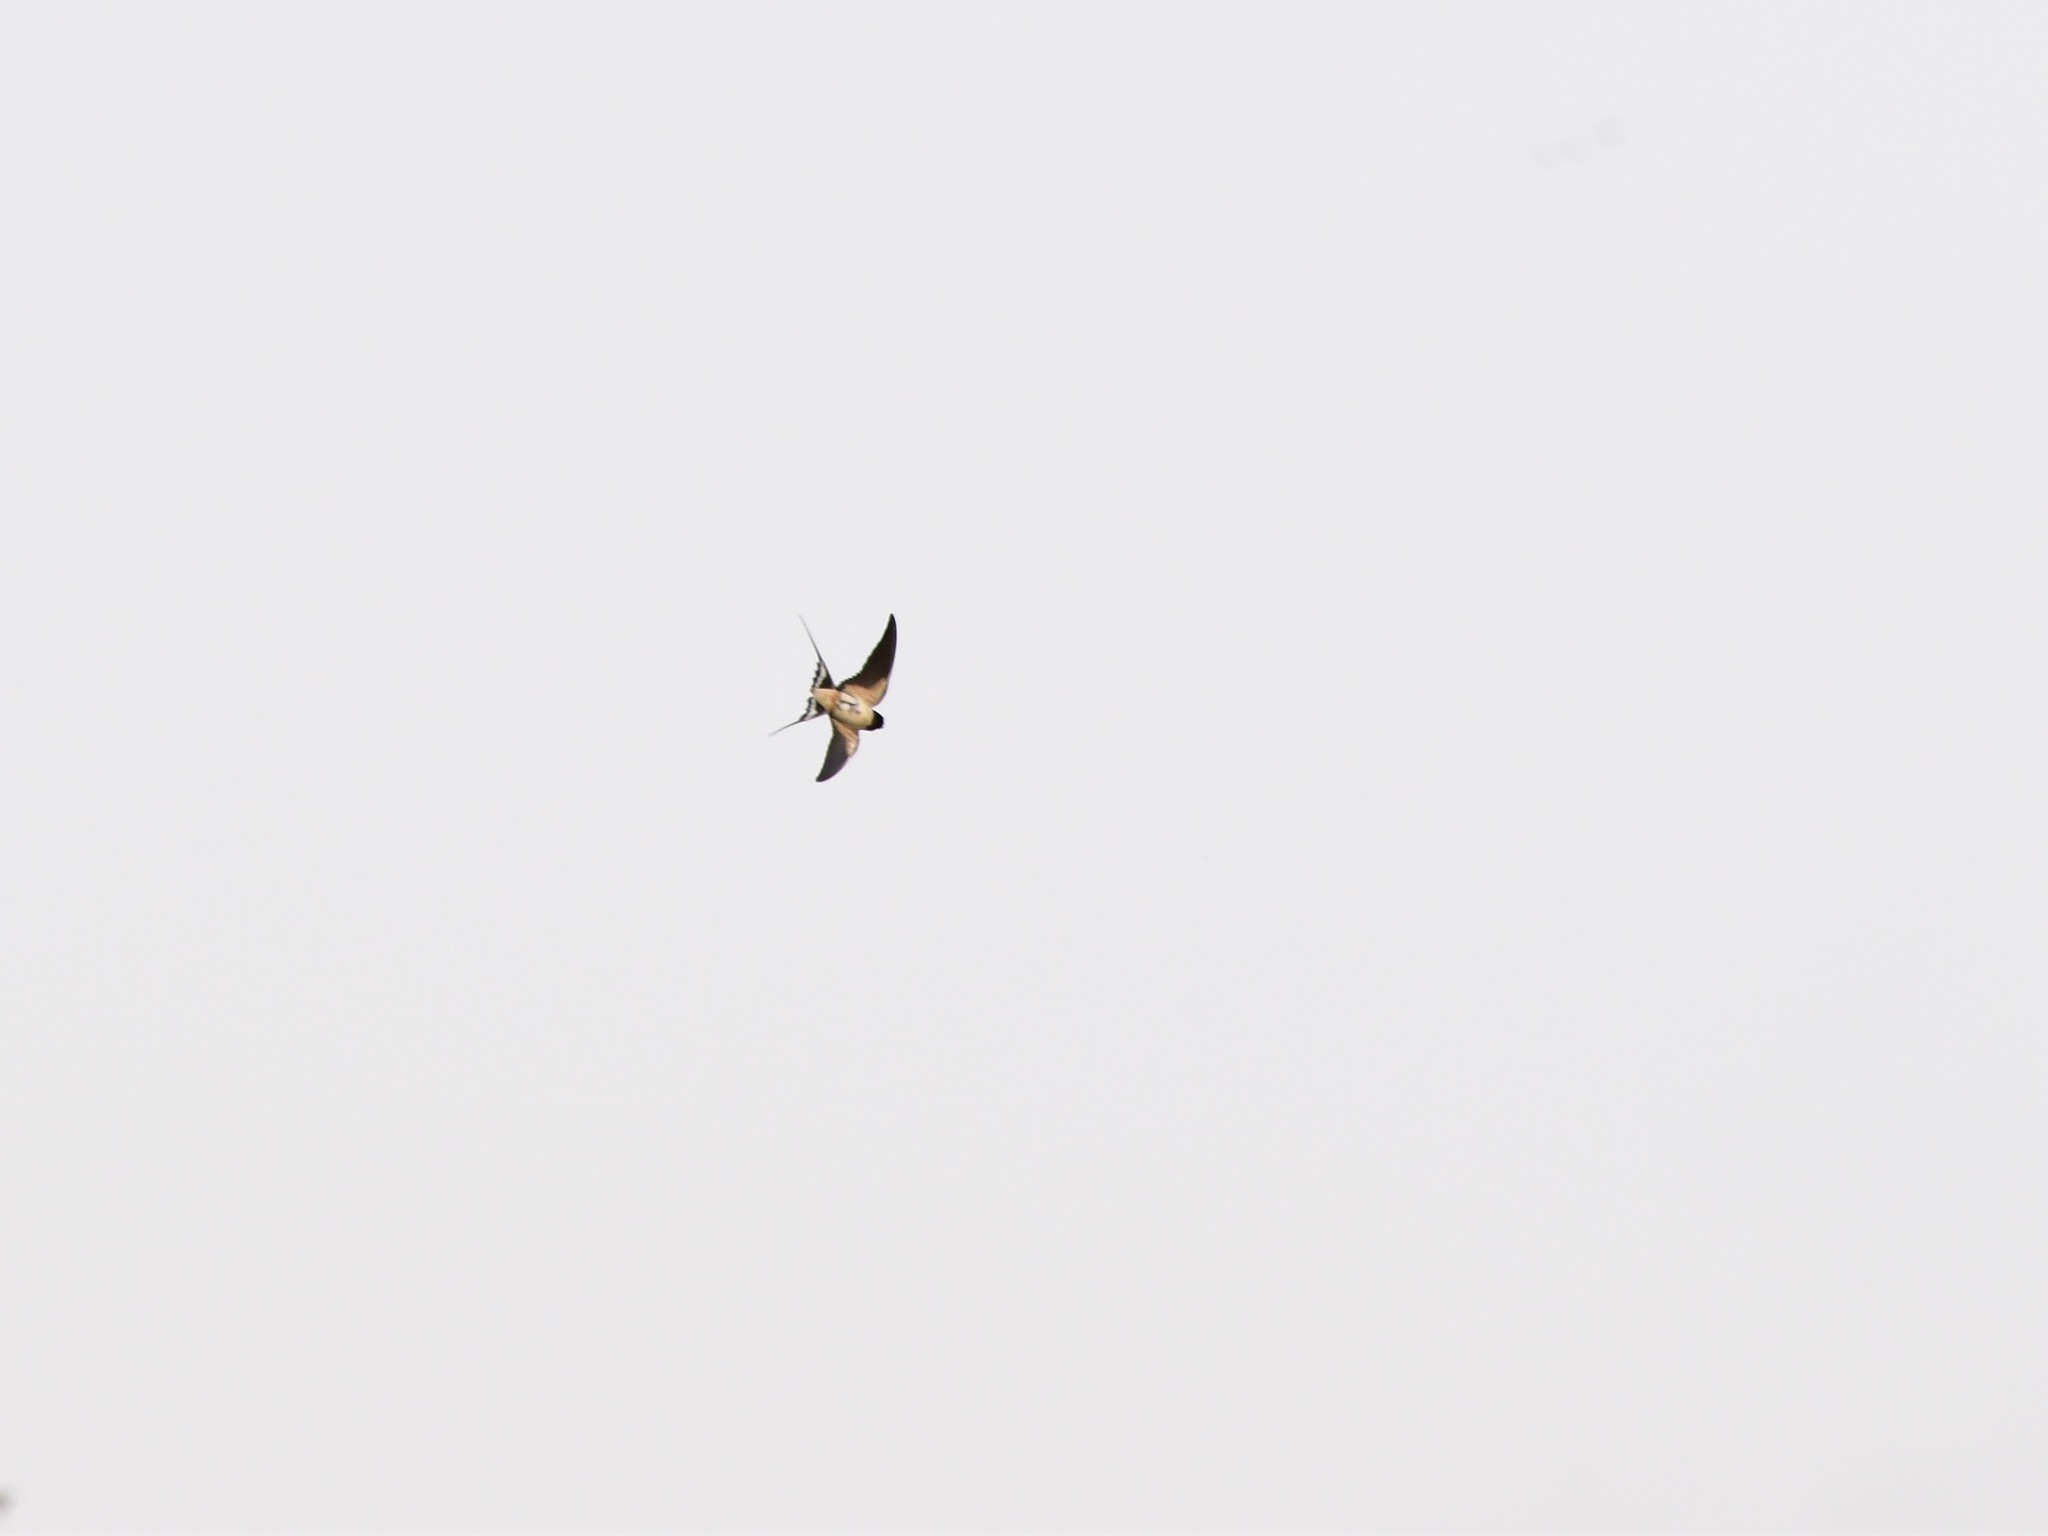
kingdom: Animalia
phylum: Chordata
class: Aves
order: Passeriformes
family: Hirundinidae
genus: Hirundo
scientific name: Hirundo rustica
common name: Barn swallow
